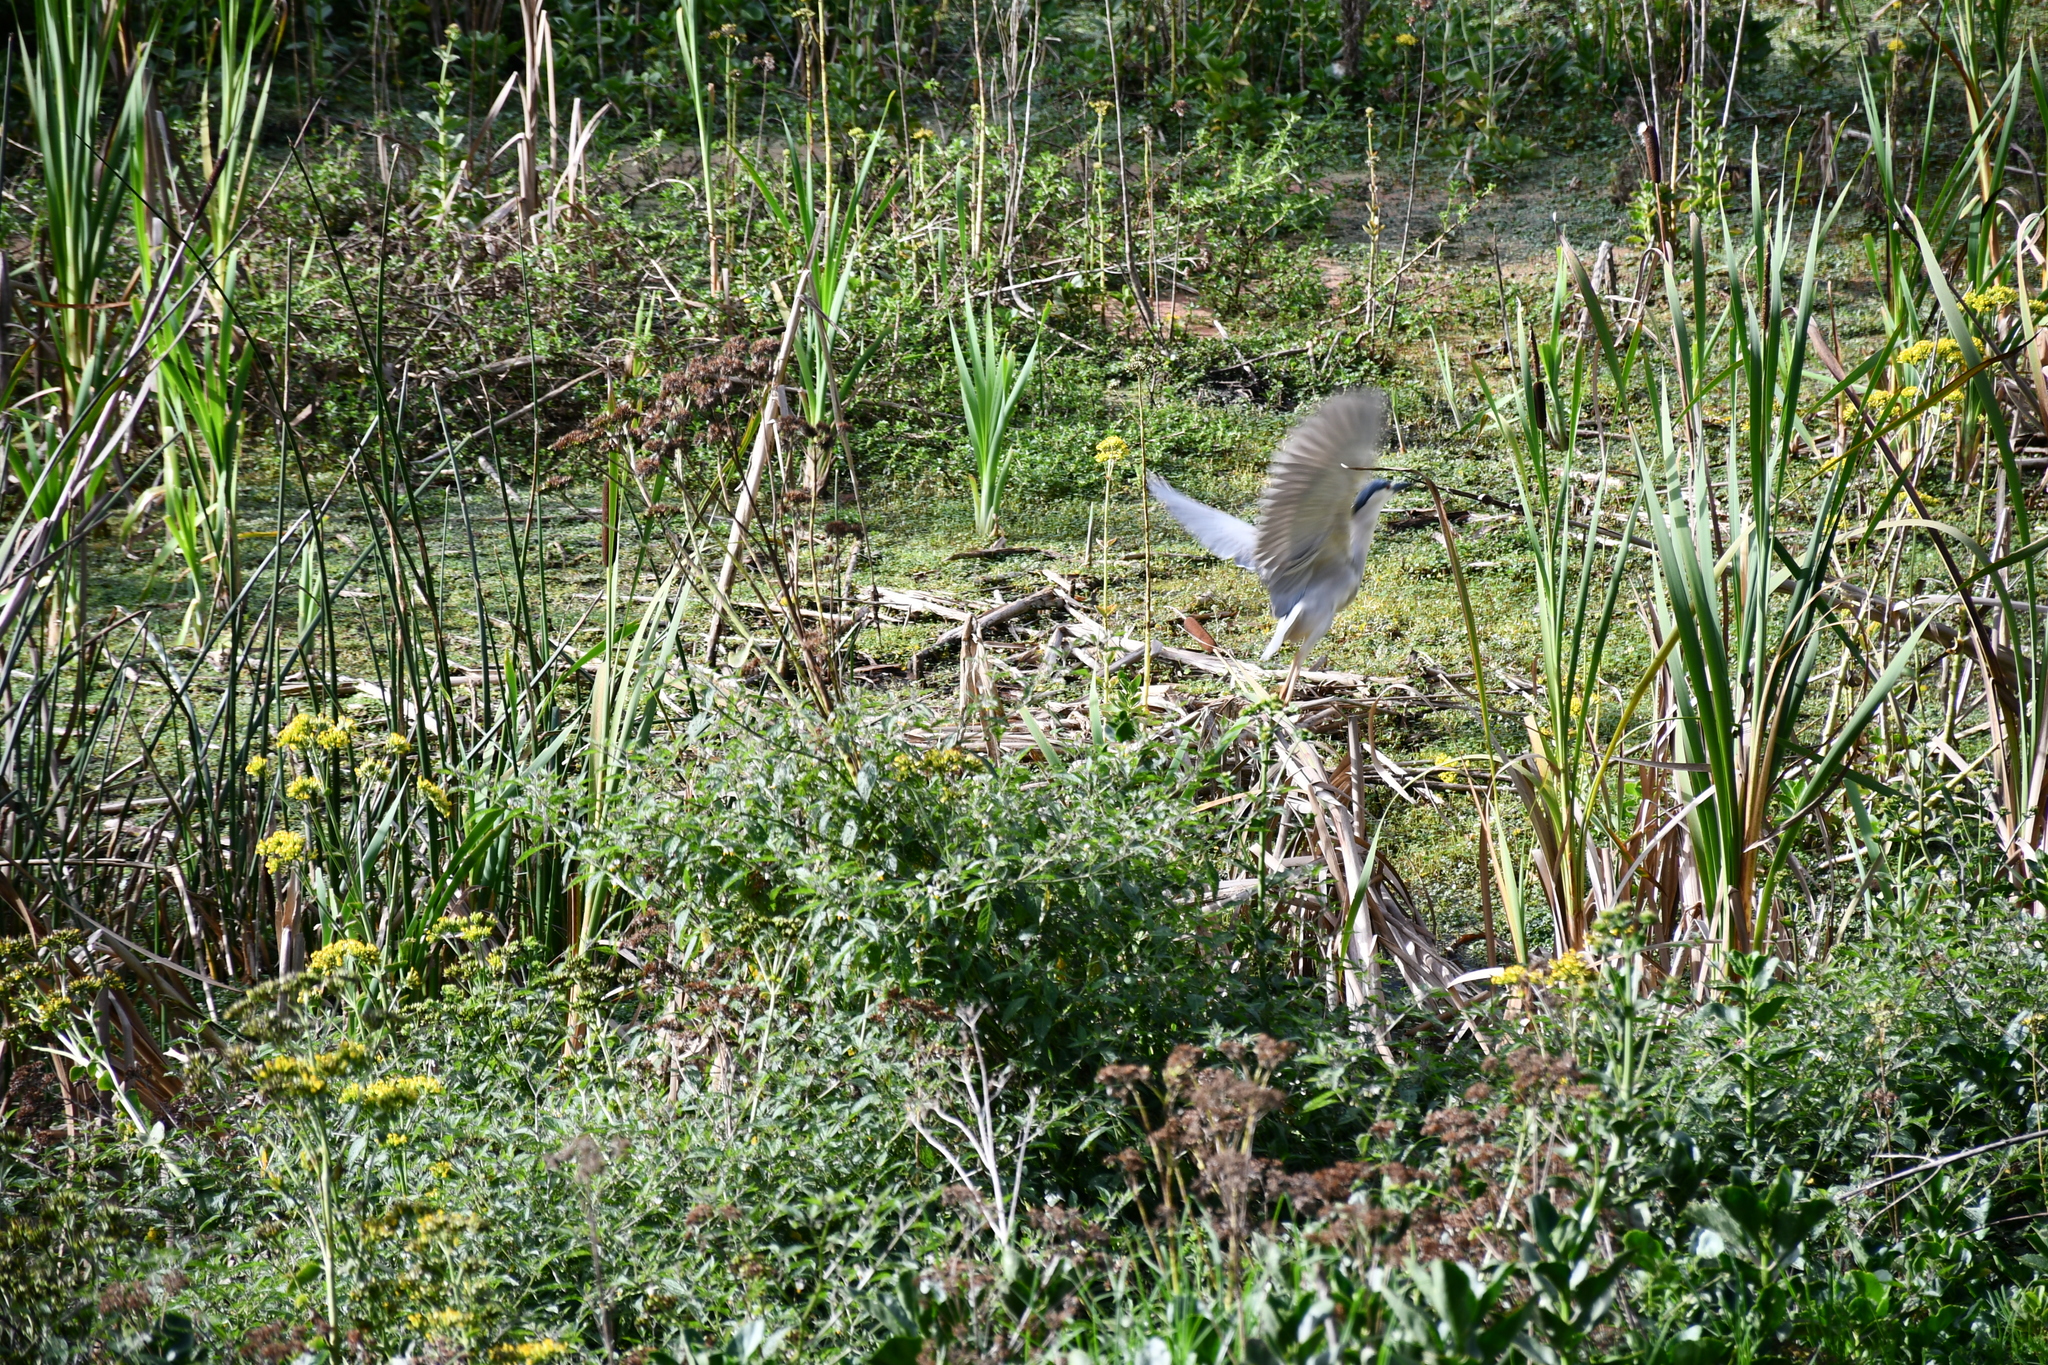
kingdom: Animalia
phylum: Chordata
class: Aves
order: Pelecaniformes
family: Ardeidae
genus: Nycticorax
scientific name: Nycticorax nycticorax
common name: Black-crowned night heron
